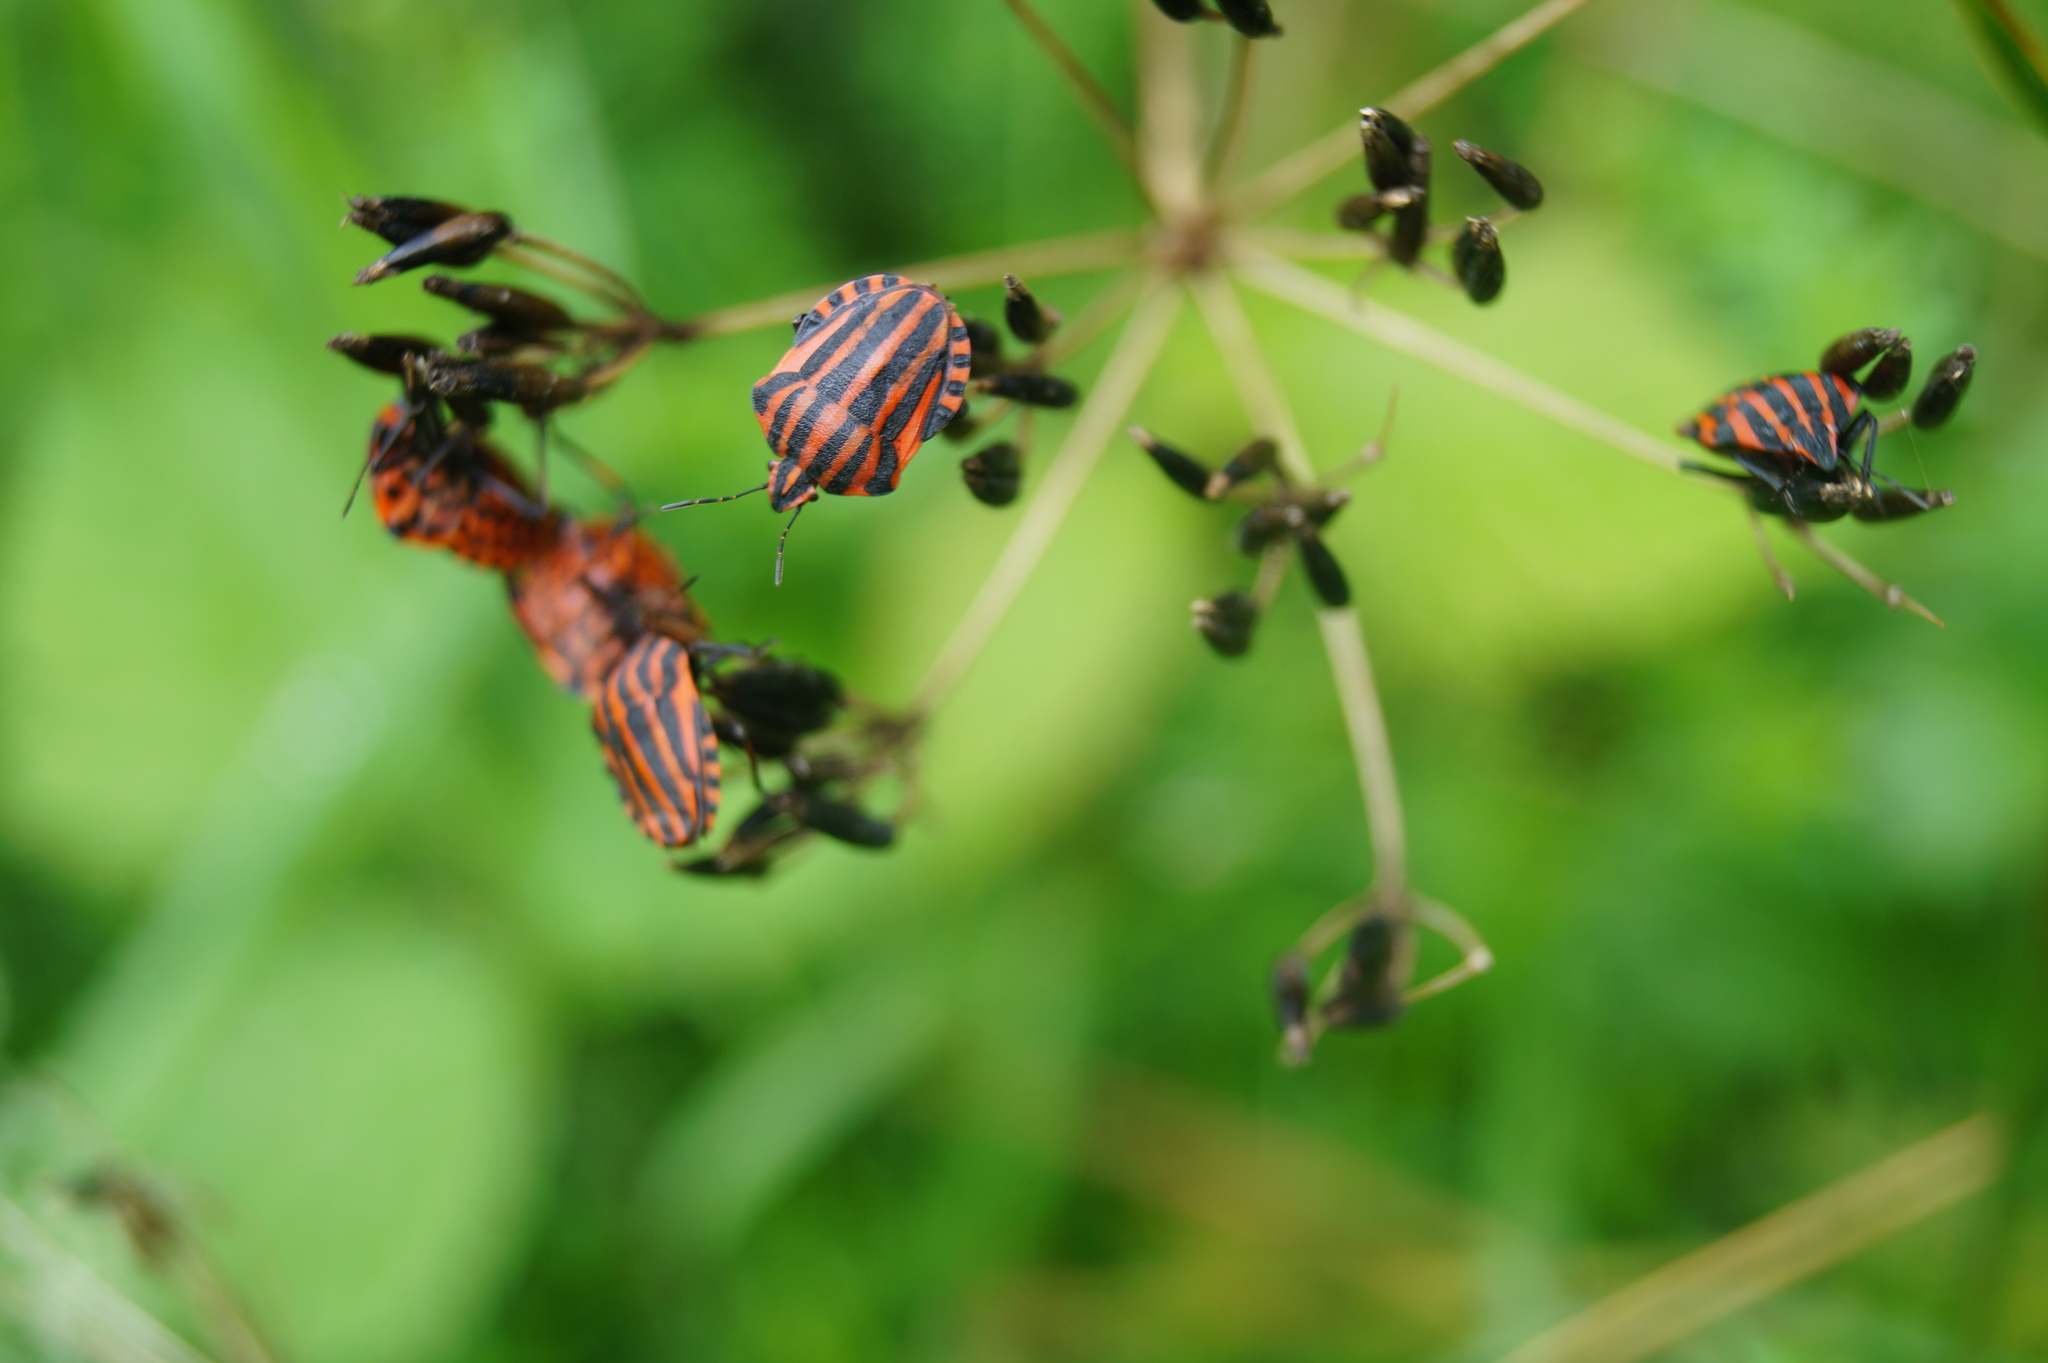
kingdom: Animalia
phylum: Arthropoda
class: Insecta
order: Hemiptera
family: Pentatomidae
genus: Graphosoma
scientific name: Graphosoma italicum
